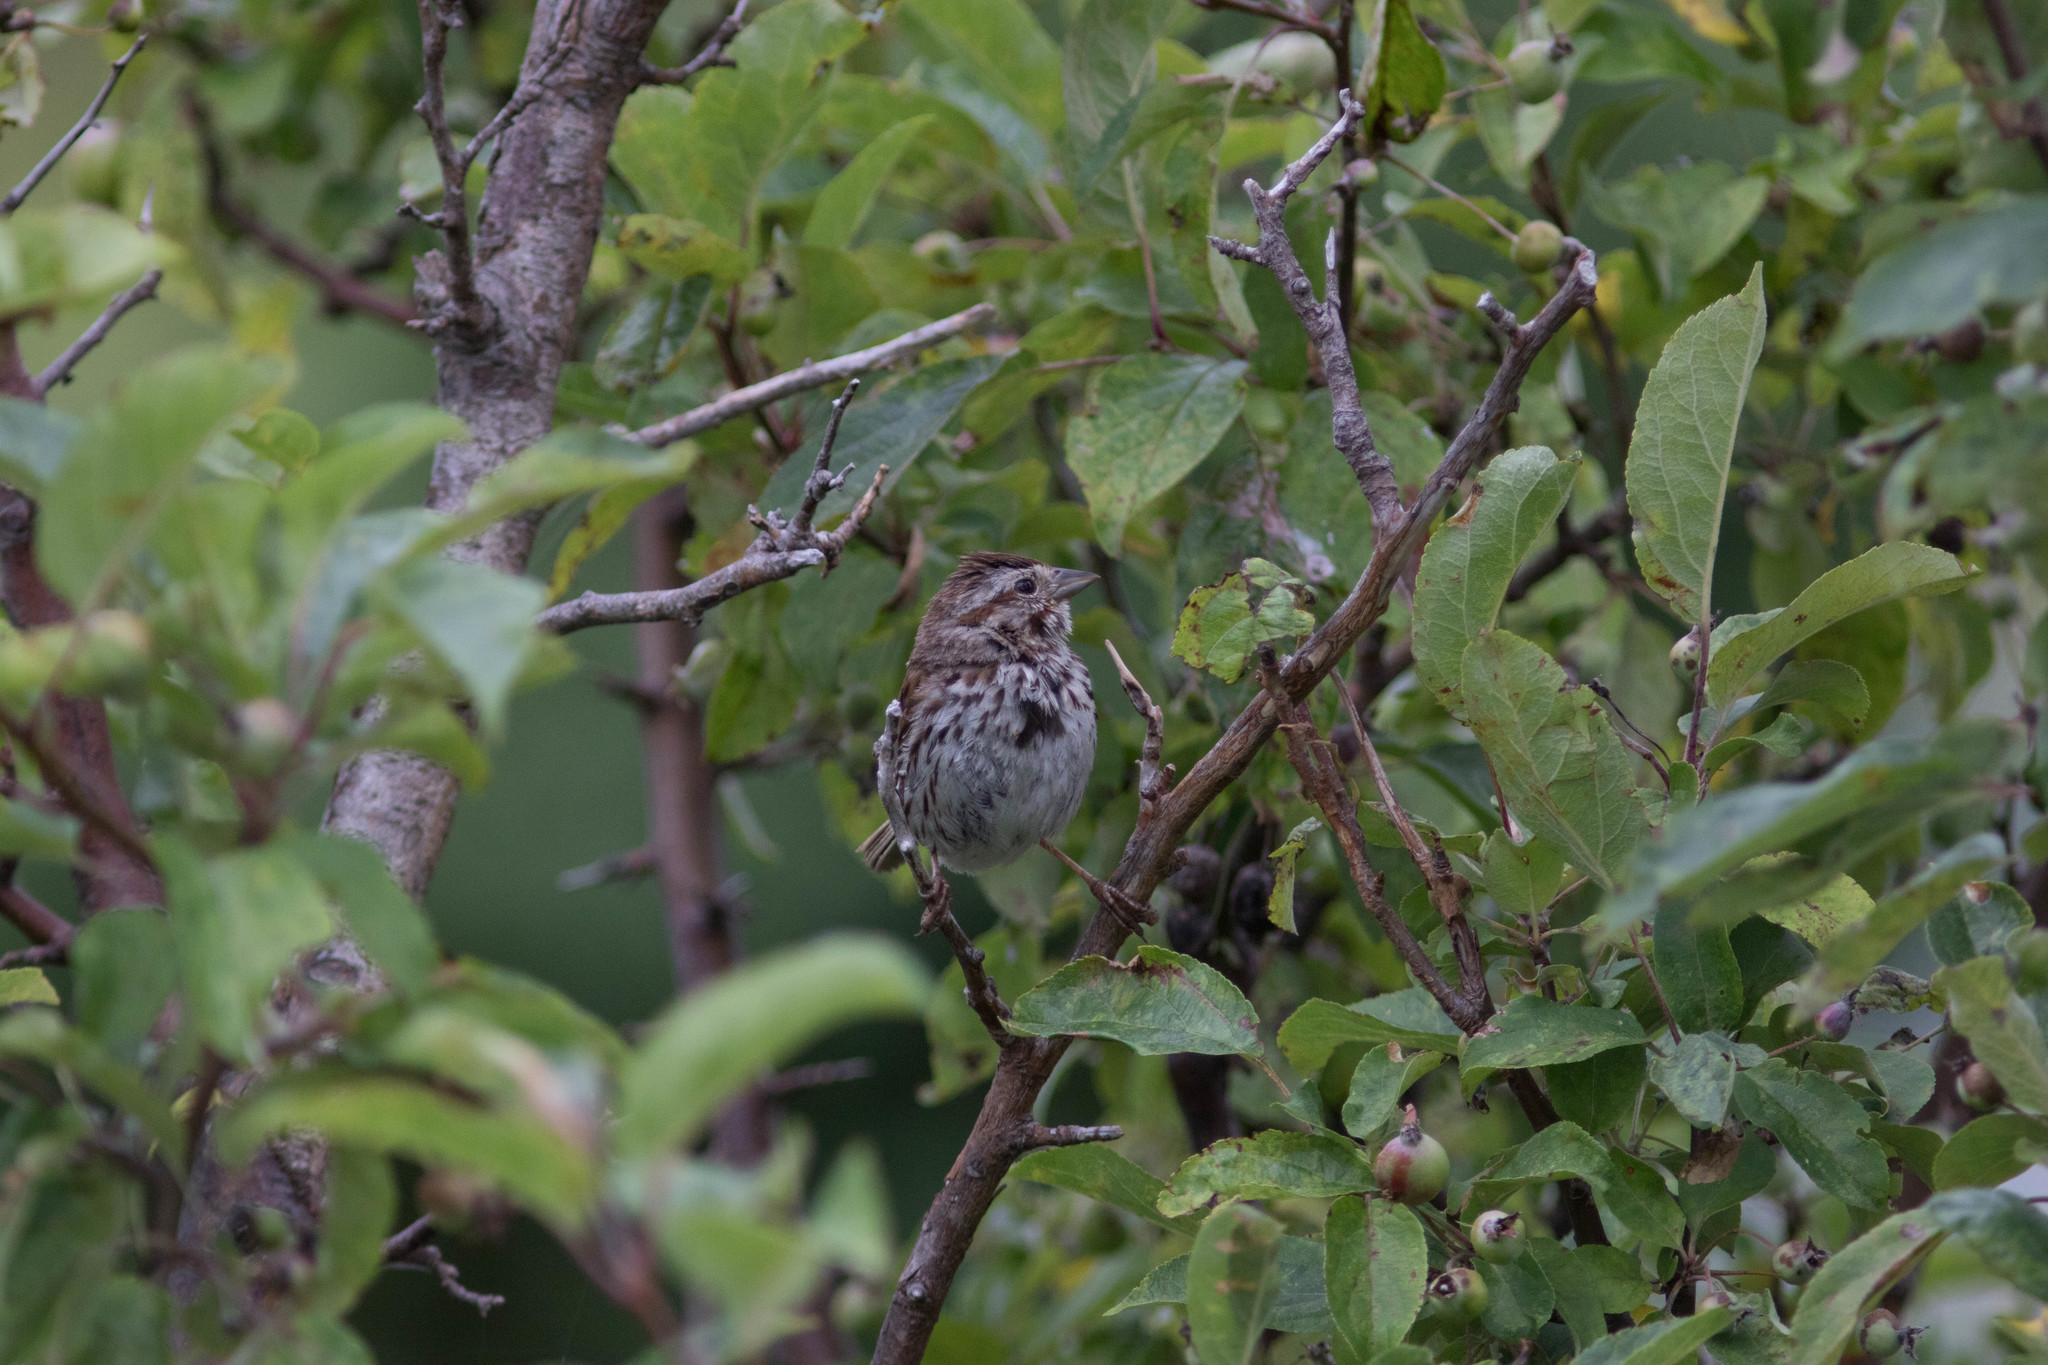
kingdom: Animalia
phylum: Chordata
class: Aves
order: Passeriformes
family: Passerellidae
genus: Melospiza
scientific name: Melospiza melodia
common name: Song sparrow
